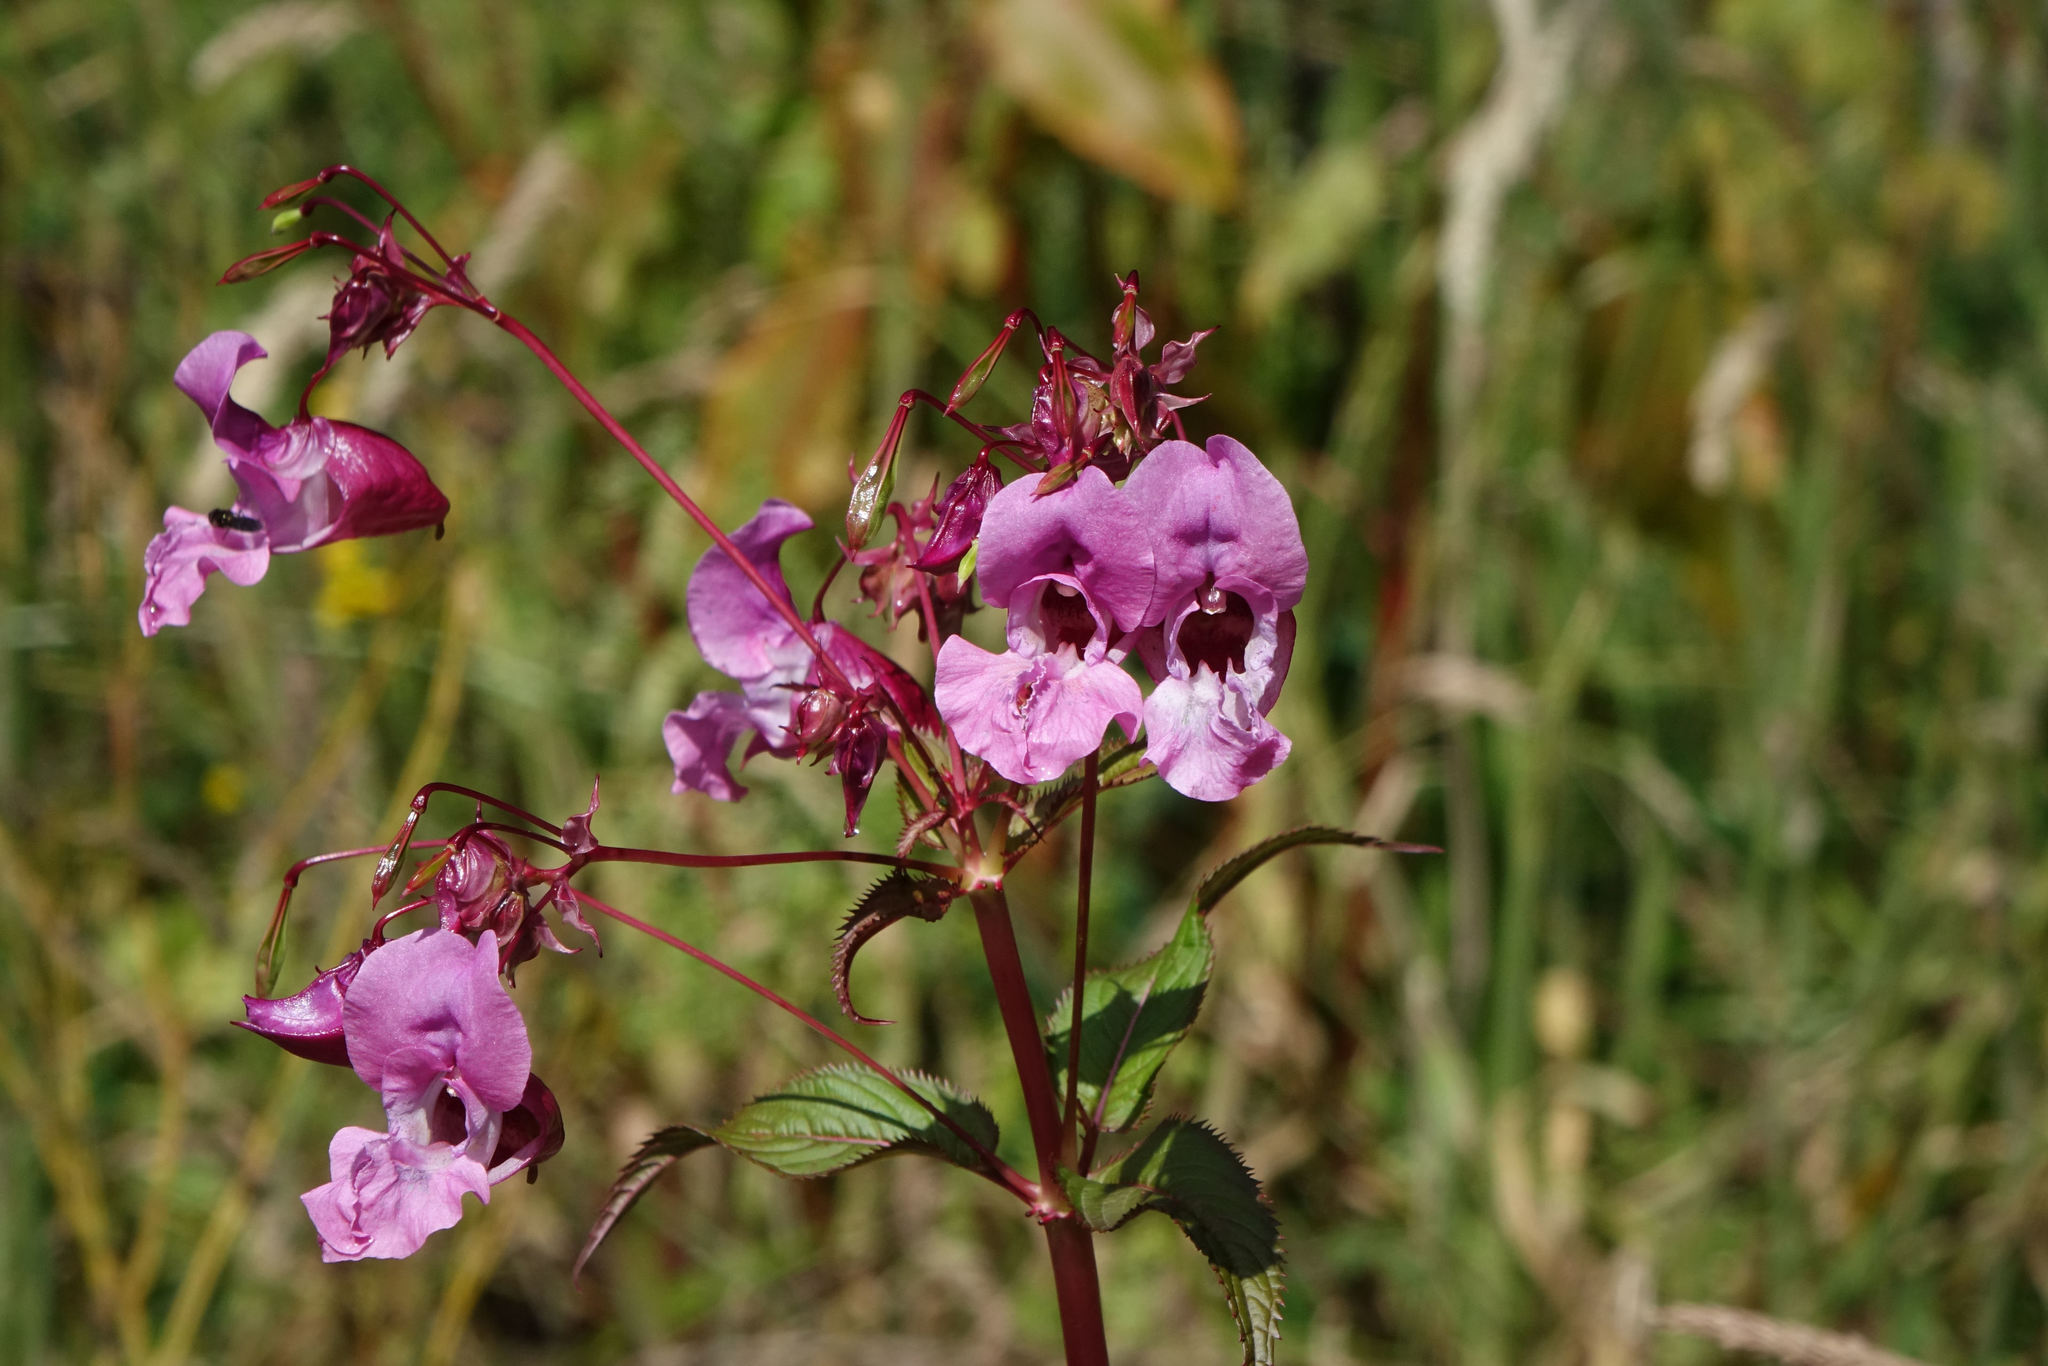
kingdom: Plantae
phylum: Tracheophyta
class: Magnoliopsida
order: Ericales
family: Balsaminaceae
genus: Impatiens
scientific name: Impatiens glandulifera
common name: Himalayan balsam
